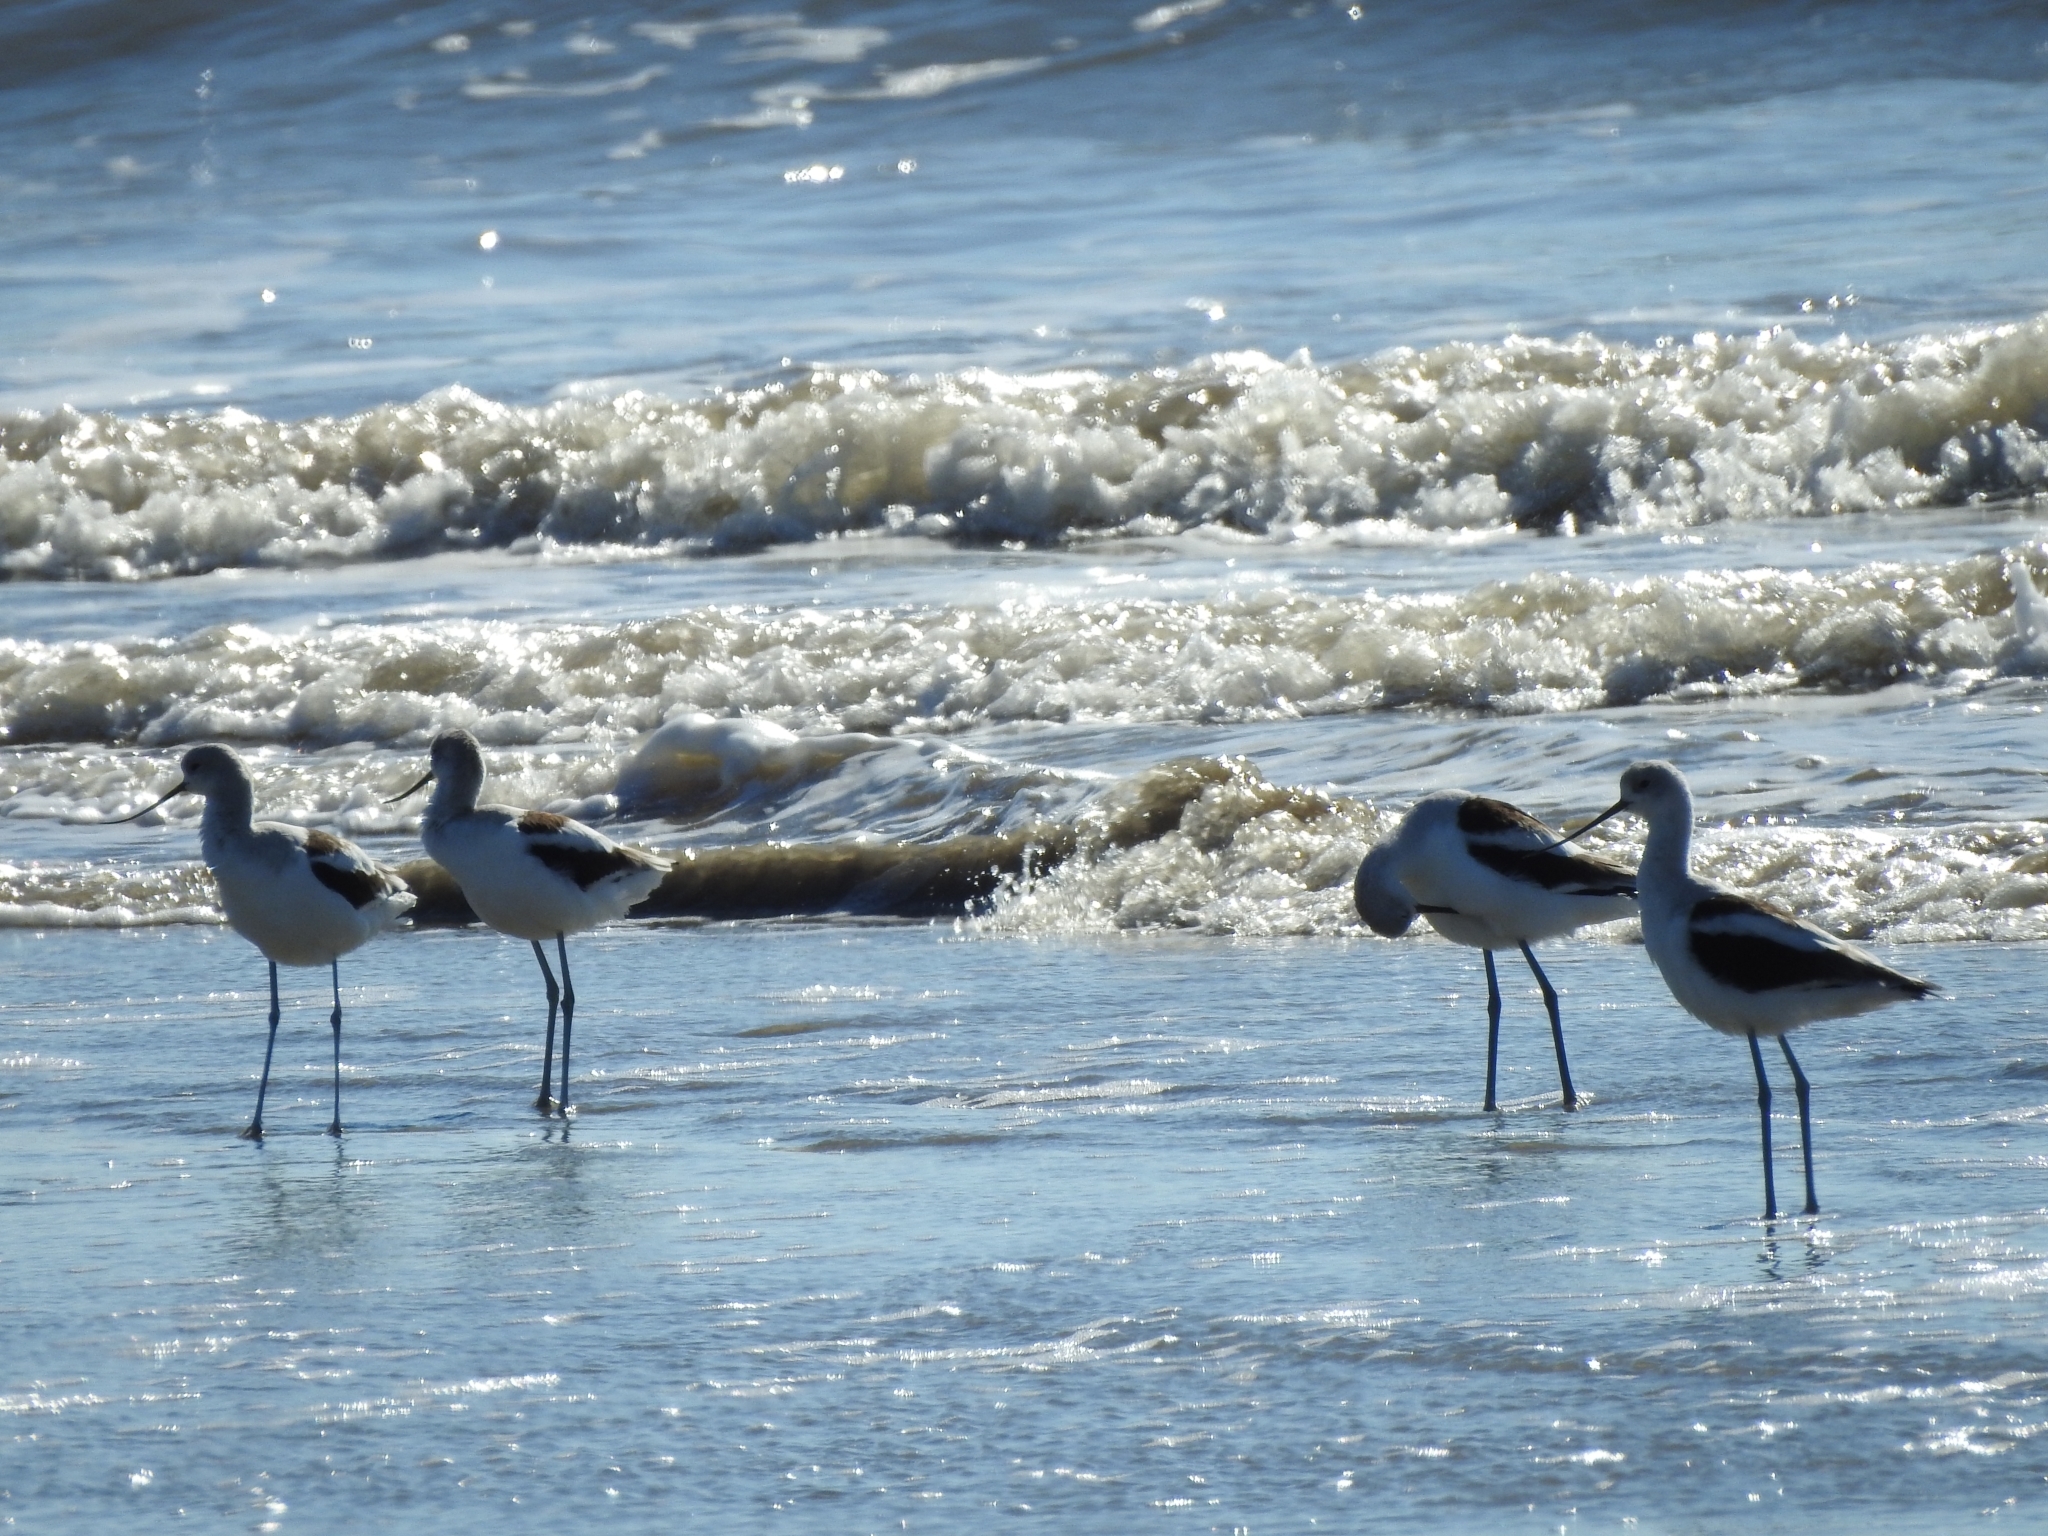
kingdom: Animalia
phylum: Chordata
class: Aves
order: Charadriiformes
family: Recurvirostridae
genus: Recurvirostra
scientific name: Recurvirostra americana
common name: American avocet
